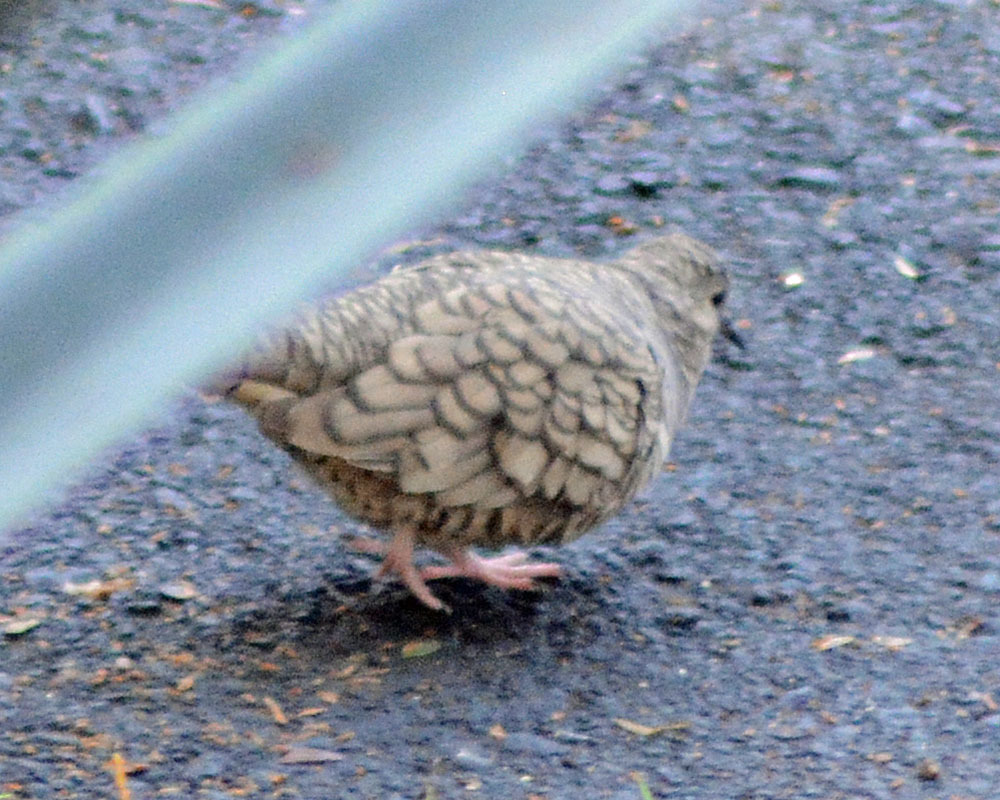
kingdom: Animalia
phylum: Chordata
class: Aves
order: Columbiformes
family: Columbidae
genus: Columbina
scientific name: Columbina inca
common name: Inca dove
